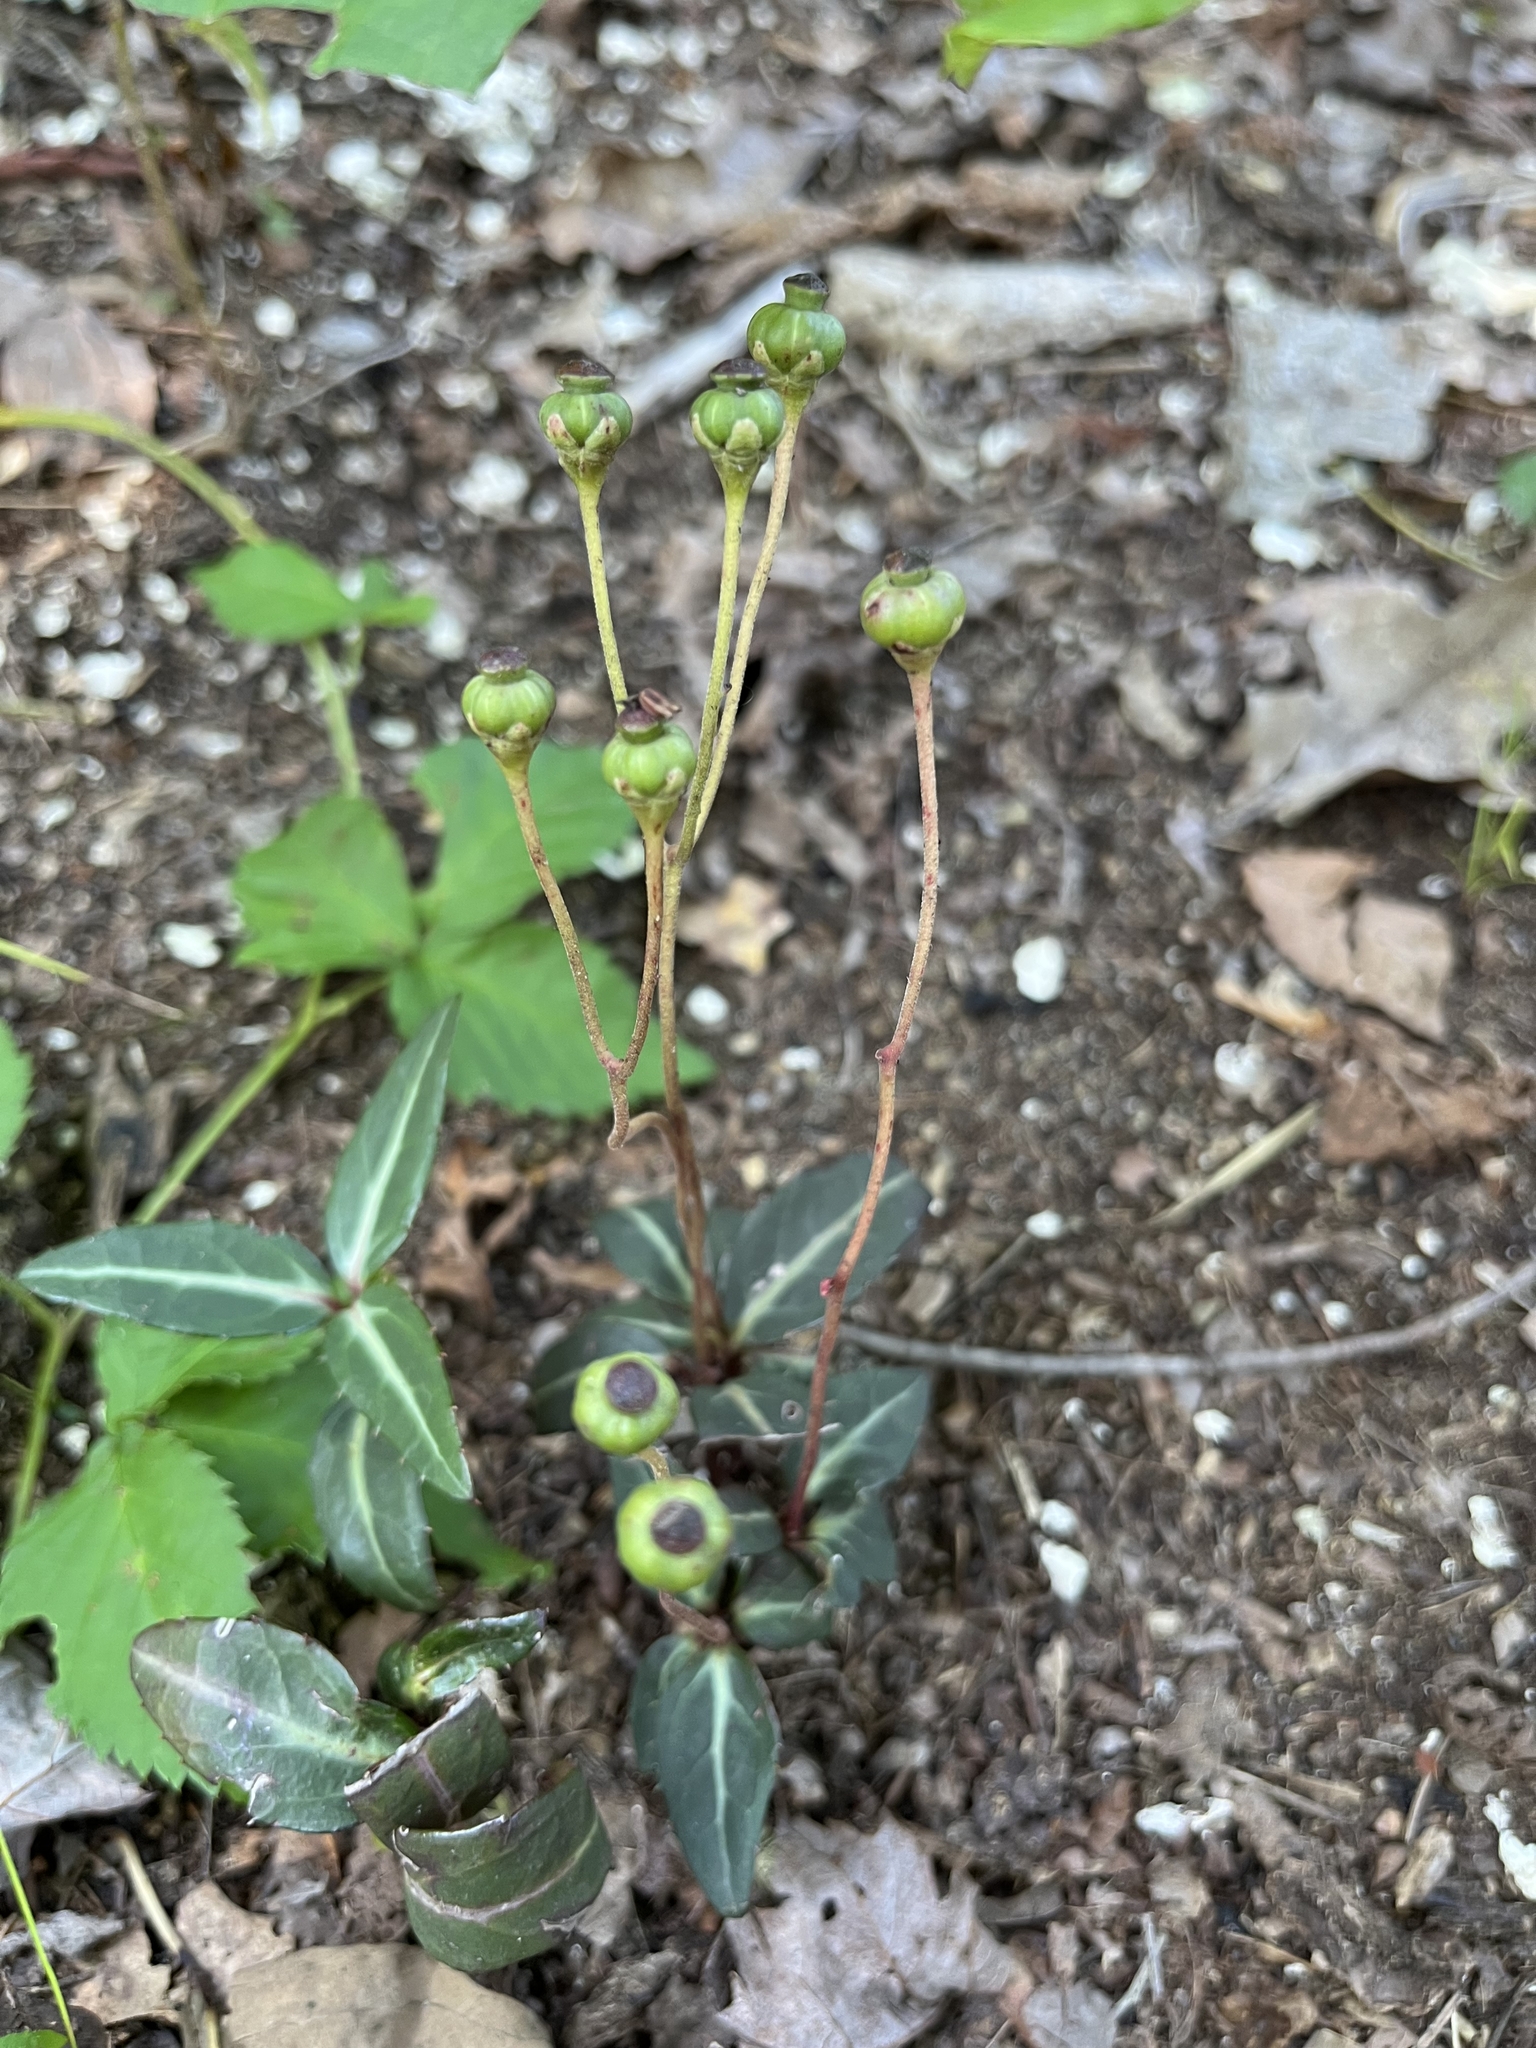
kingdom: Plantae
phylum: Tracheophyta
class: Magnoliopsida
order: Ericales
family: Ericaceae
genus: Chimaphila
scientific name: Chimaphila maculata
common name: Spotted pipsissewa
